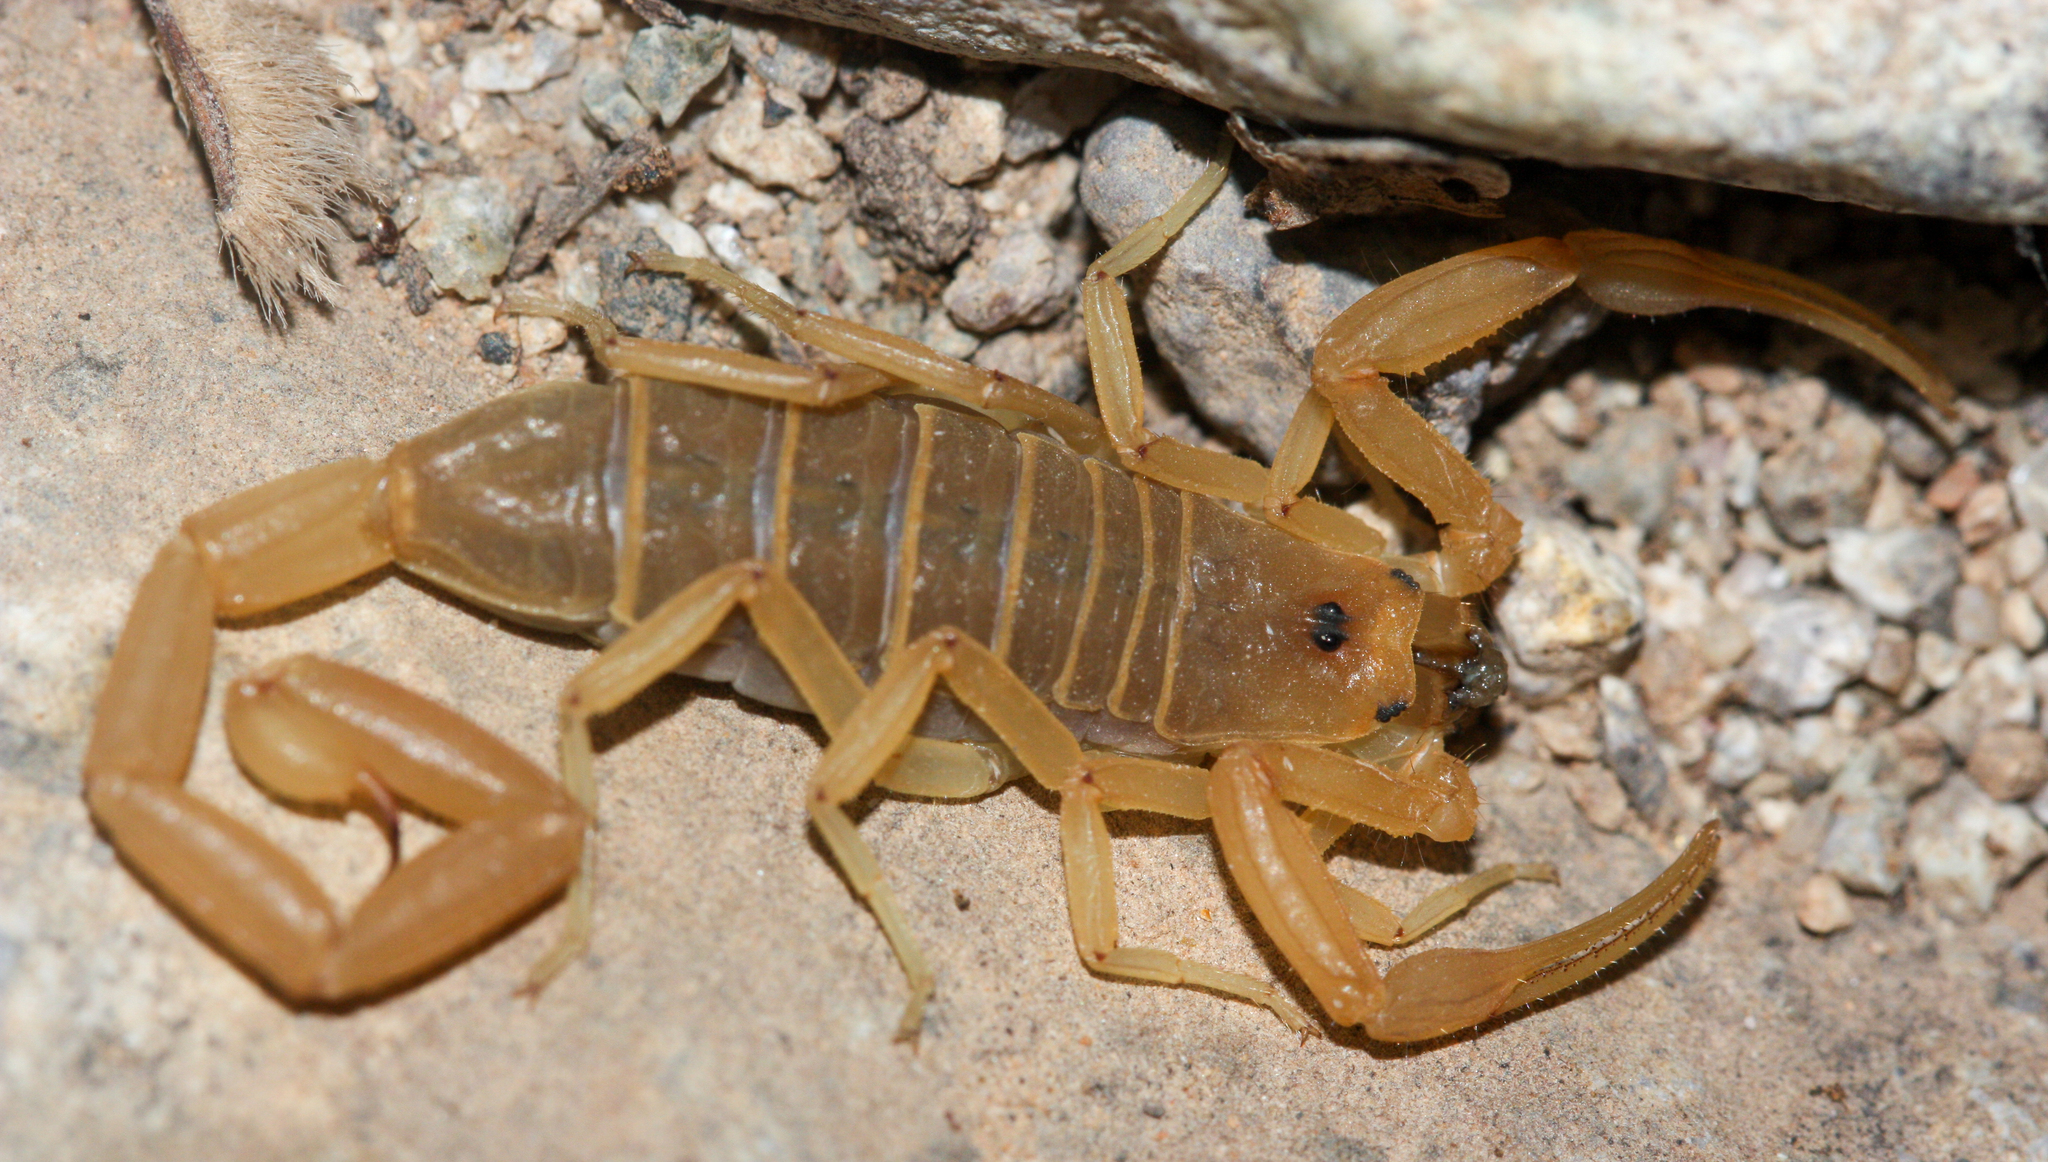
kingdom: Animalia
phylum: Arthropoda
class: Arachnida
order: Scorpiones
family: Buthidae
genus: Centruroides
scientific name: Centruroides sculpturatus
